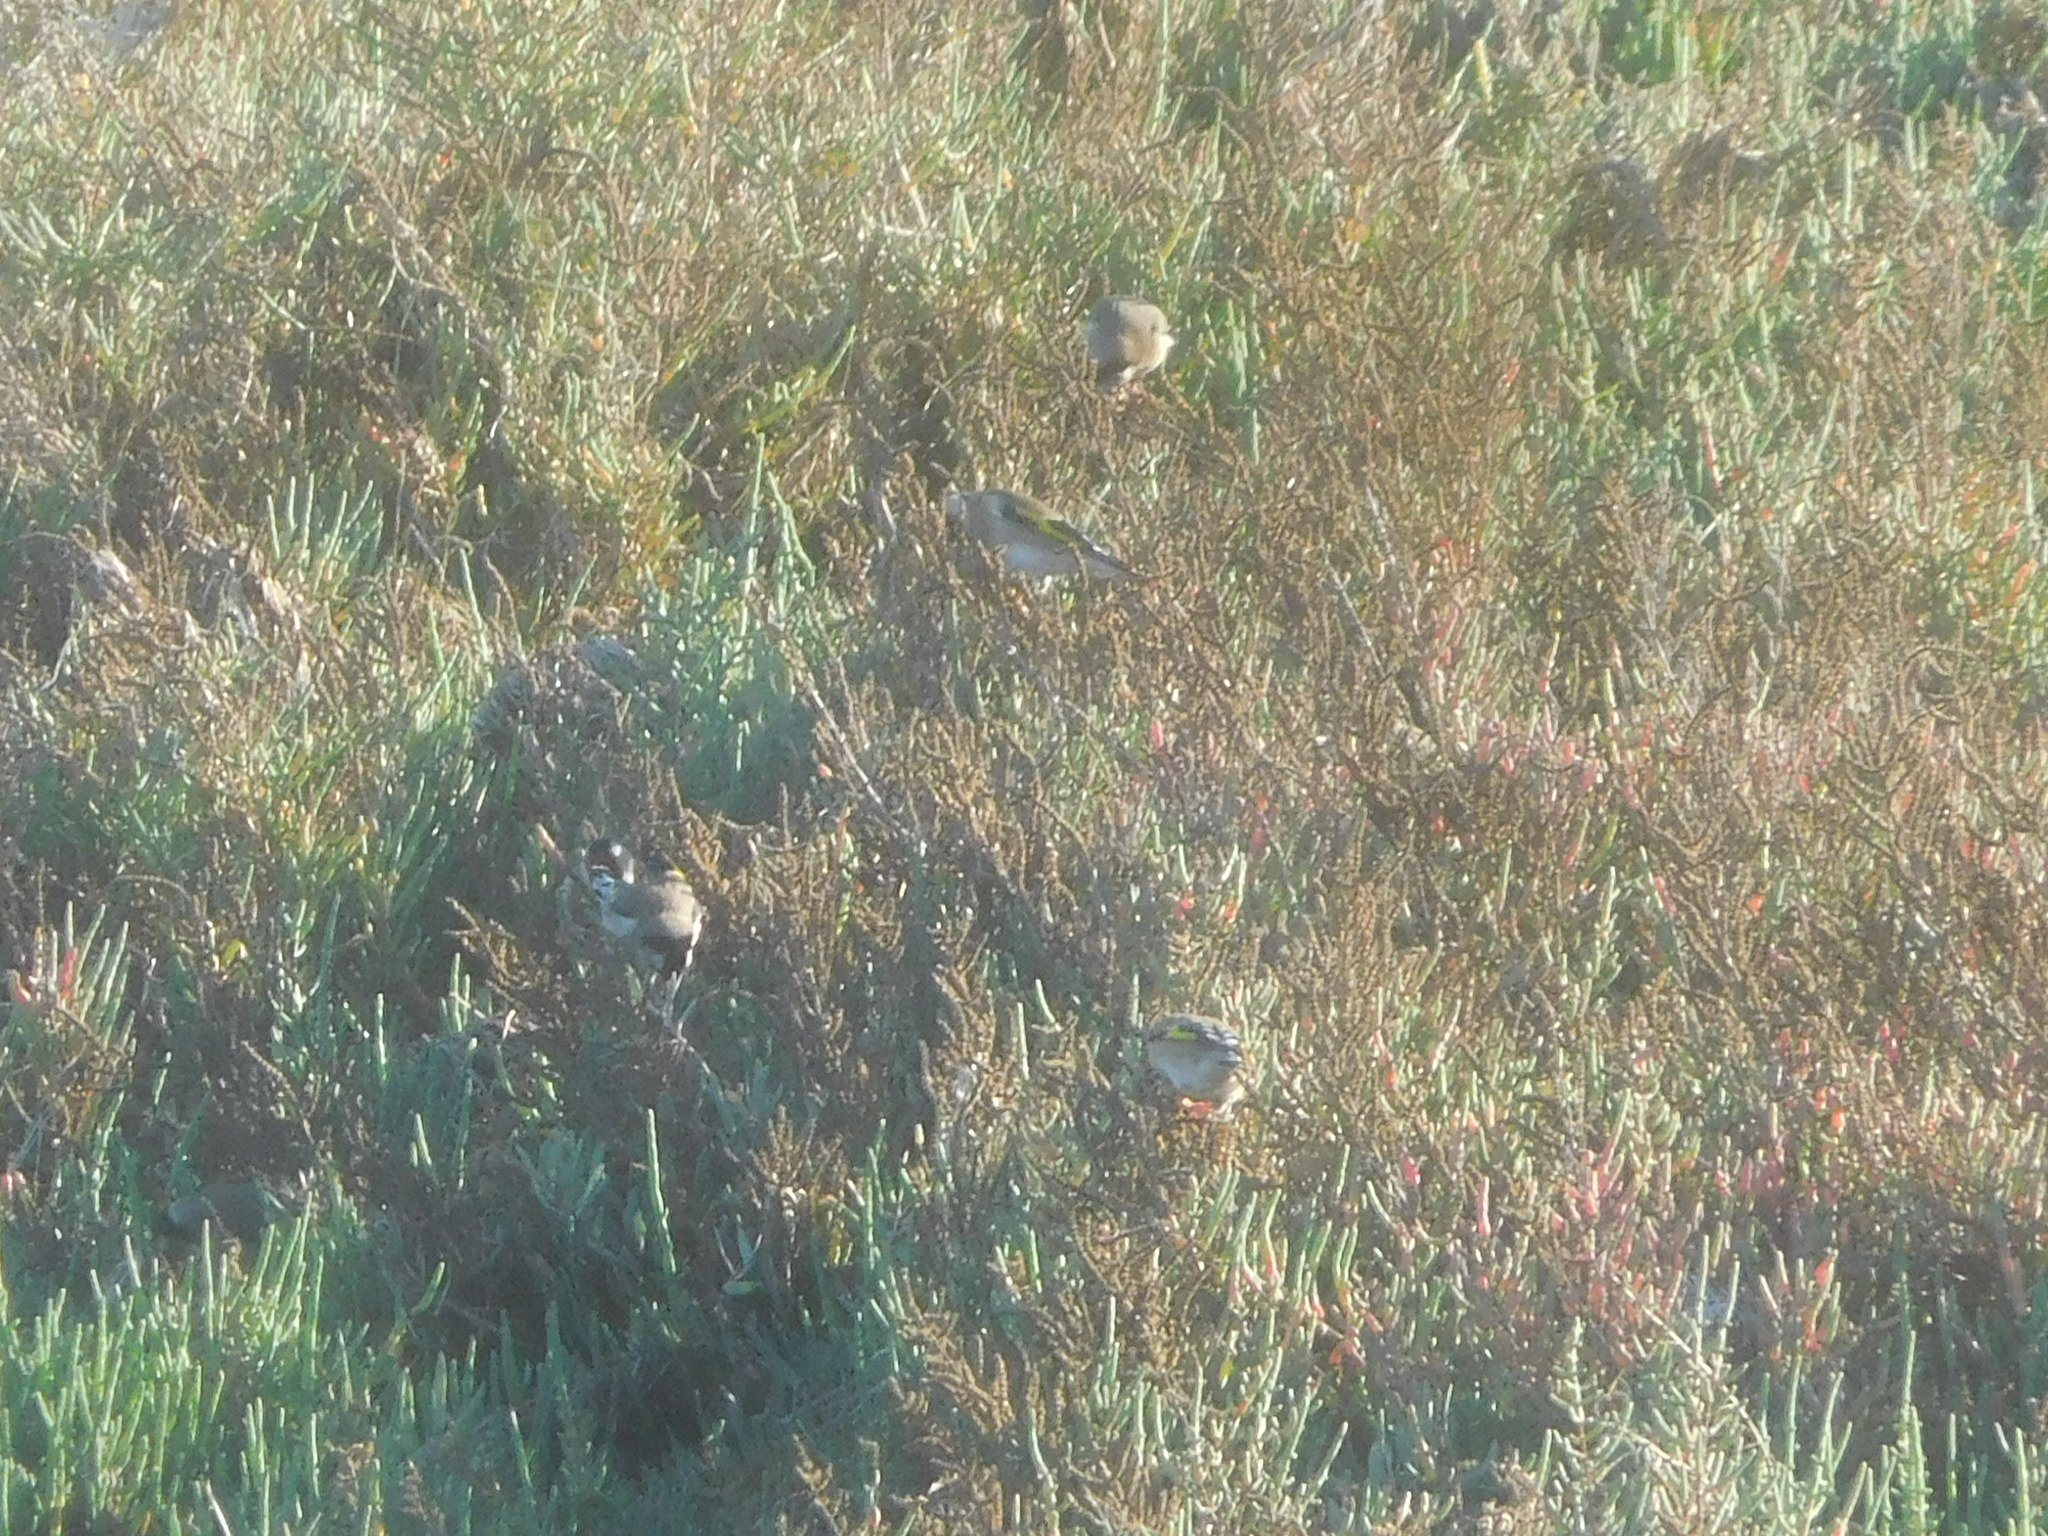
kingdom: Animalia
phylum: Chordata
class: Aves
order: Passeriformes
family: Fringillidae
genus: Carduelis
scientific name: Carduelis carduelis
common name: European goldfinch
